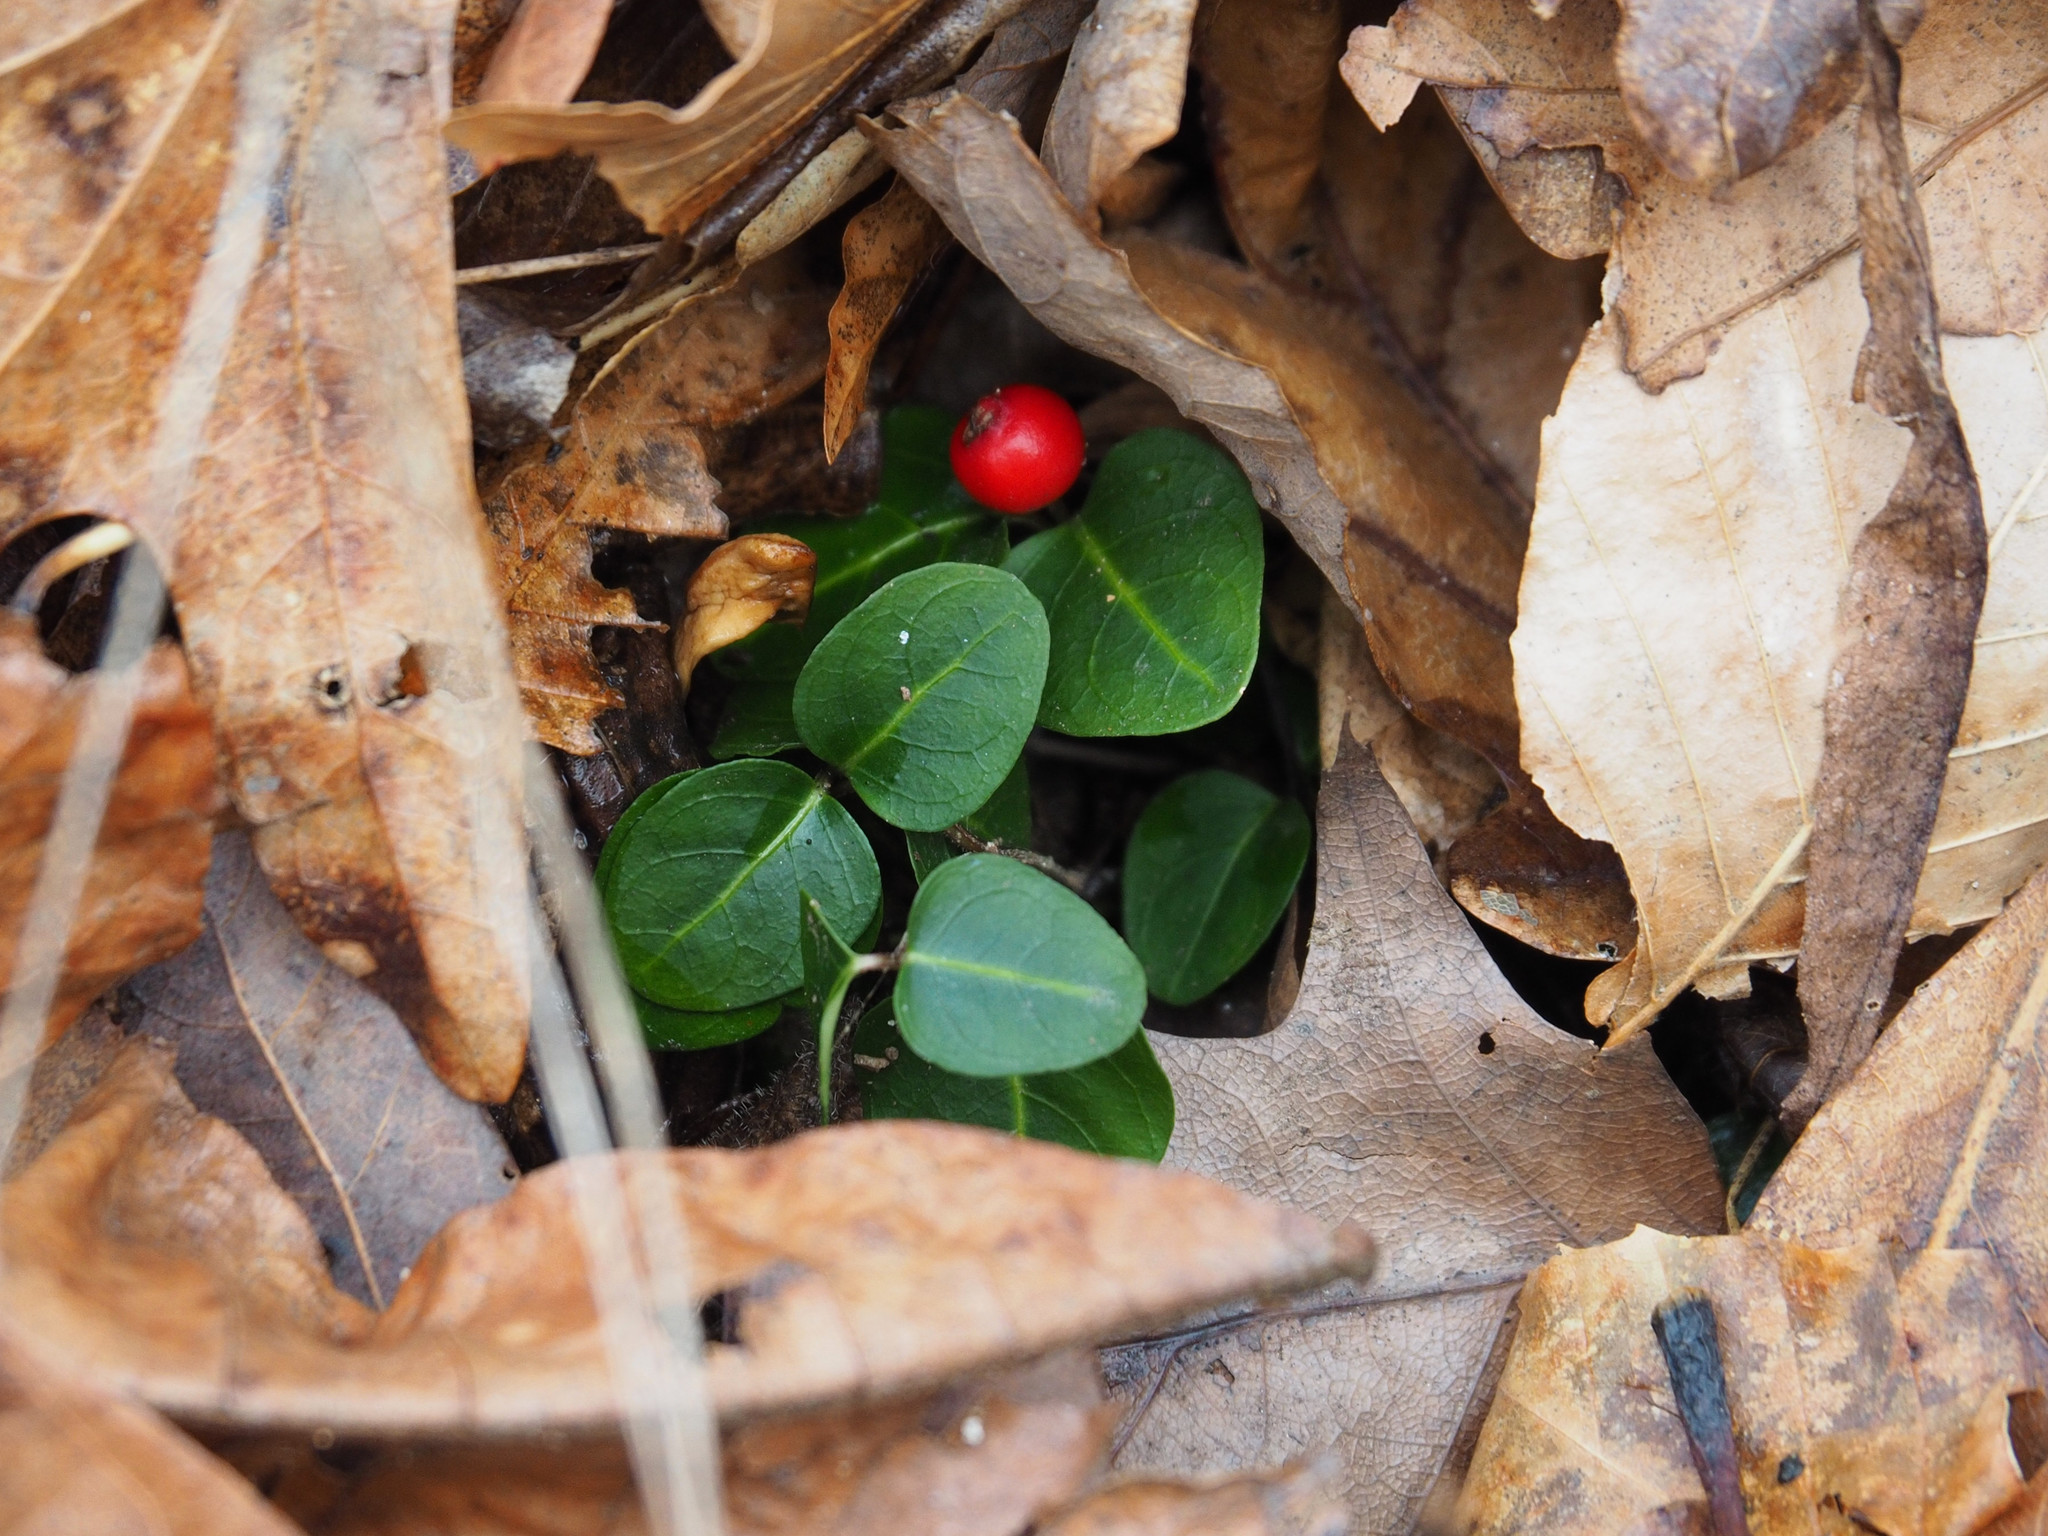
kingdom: Plantae
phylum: Tracheophyta
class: Magnoliopsida
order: Gentianales
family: Rubiaceae
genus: Mitchella
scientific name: Mitchella repens
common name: Partridge-berry
